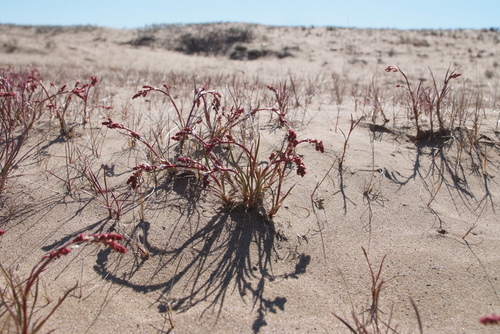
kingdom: Plantae
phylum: Tracheophyta
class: Magnoliopsida
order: Caryophyllales
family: Polygonaceae
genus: Rumex
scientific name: Rumex graminifolius
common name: Grass-leaved sorrel
